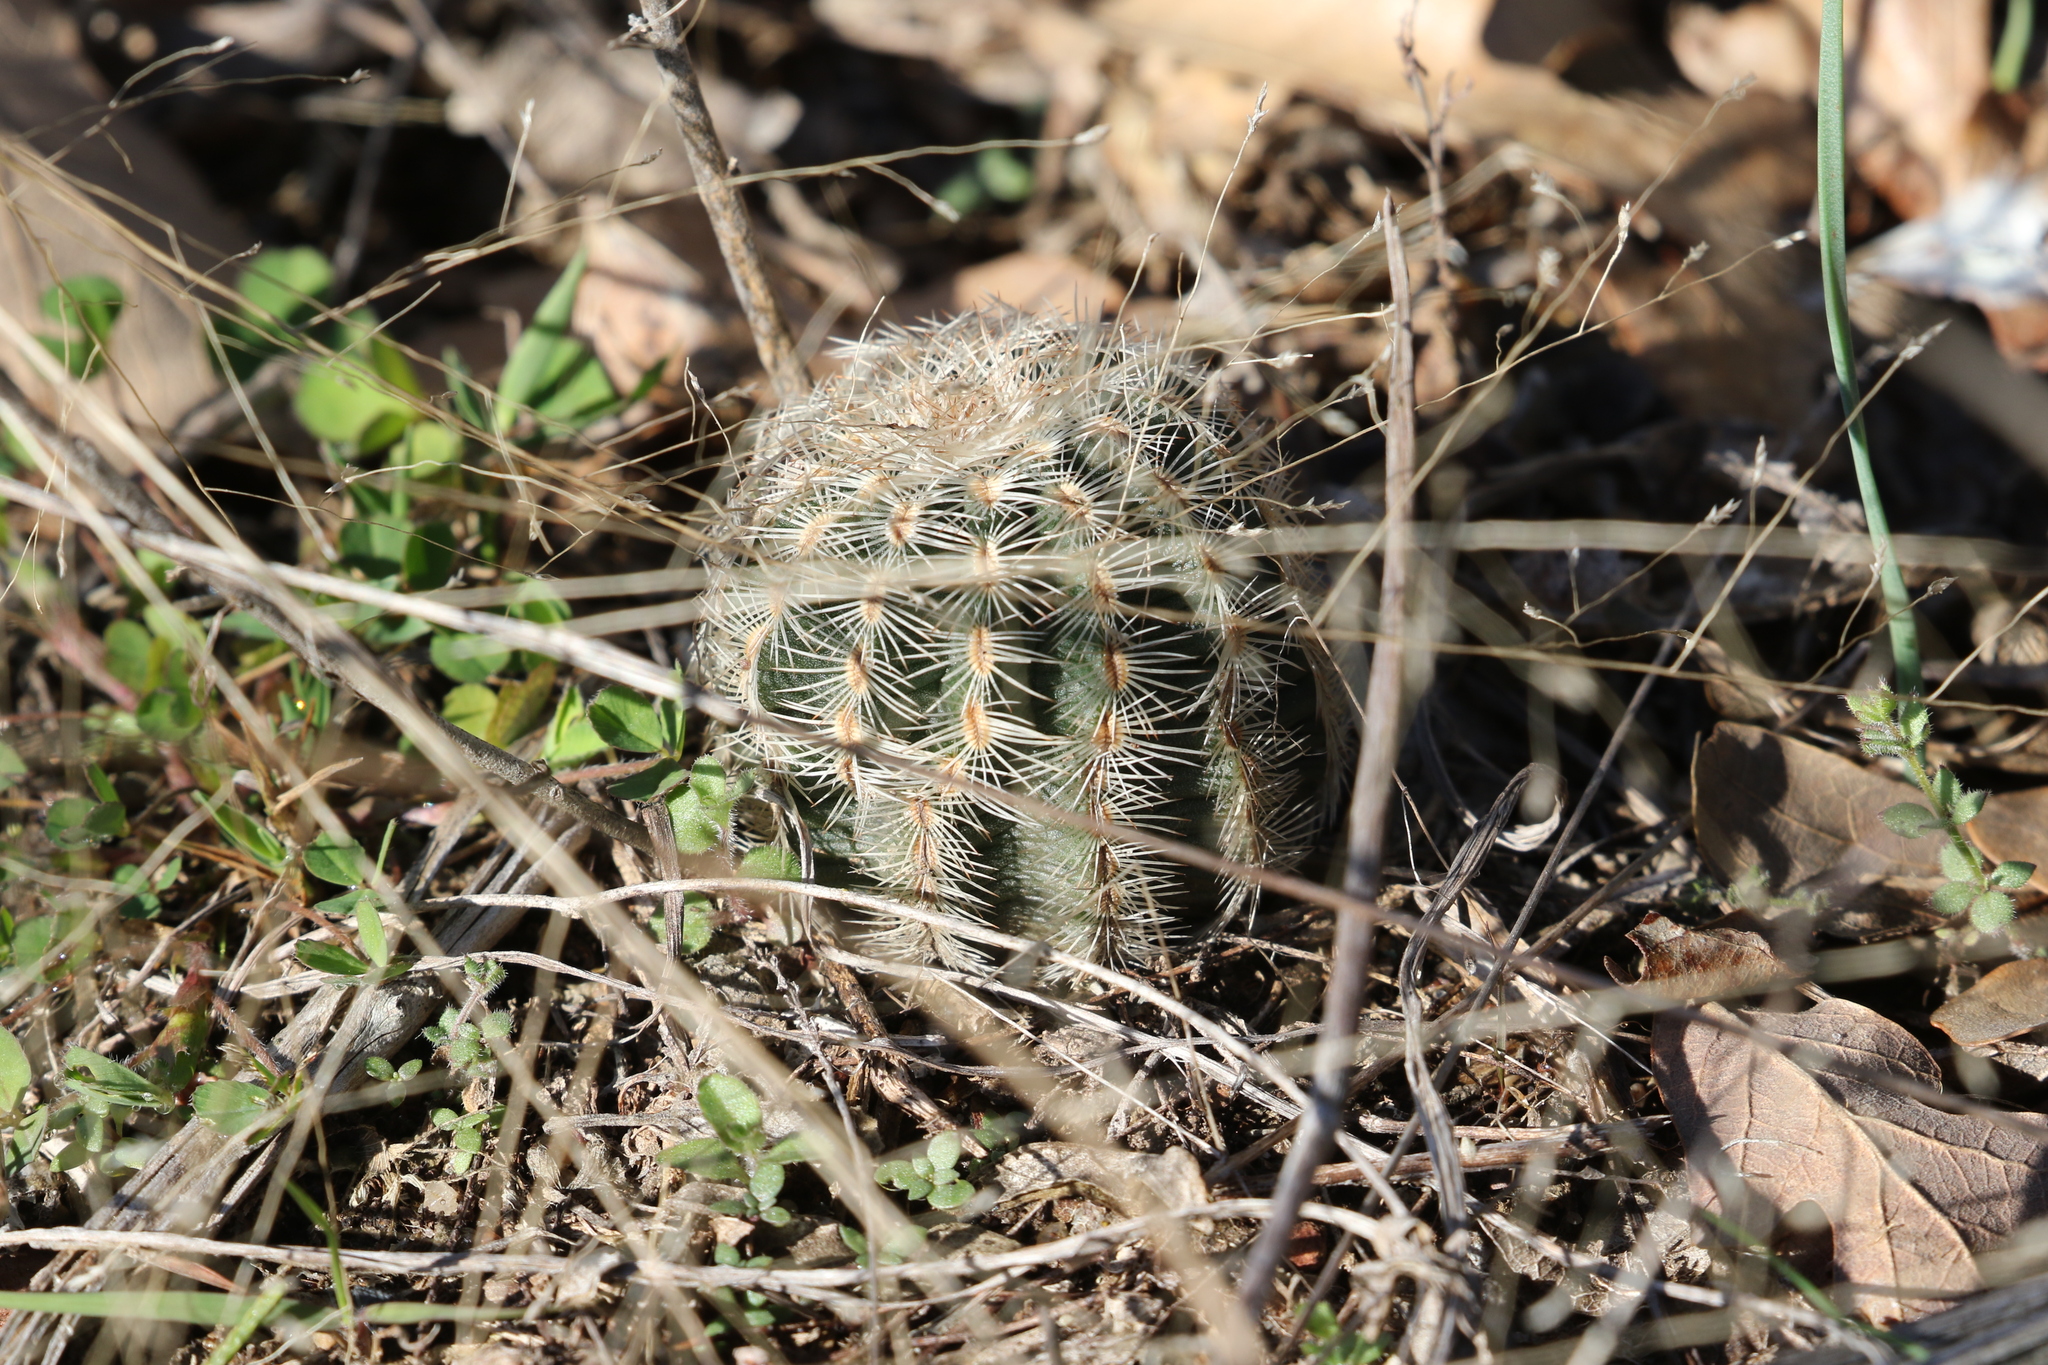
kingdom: Plantae
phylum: Tracheophyta
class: Magnoliopsida
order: Caryophyllales
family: Cactaceae
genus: Echinocereus
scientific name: Echinocereus reichenbachii
